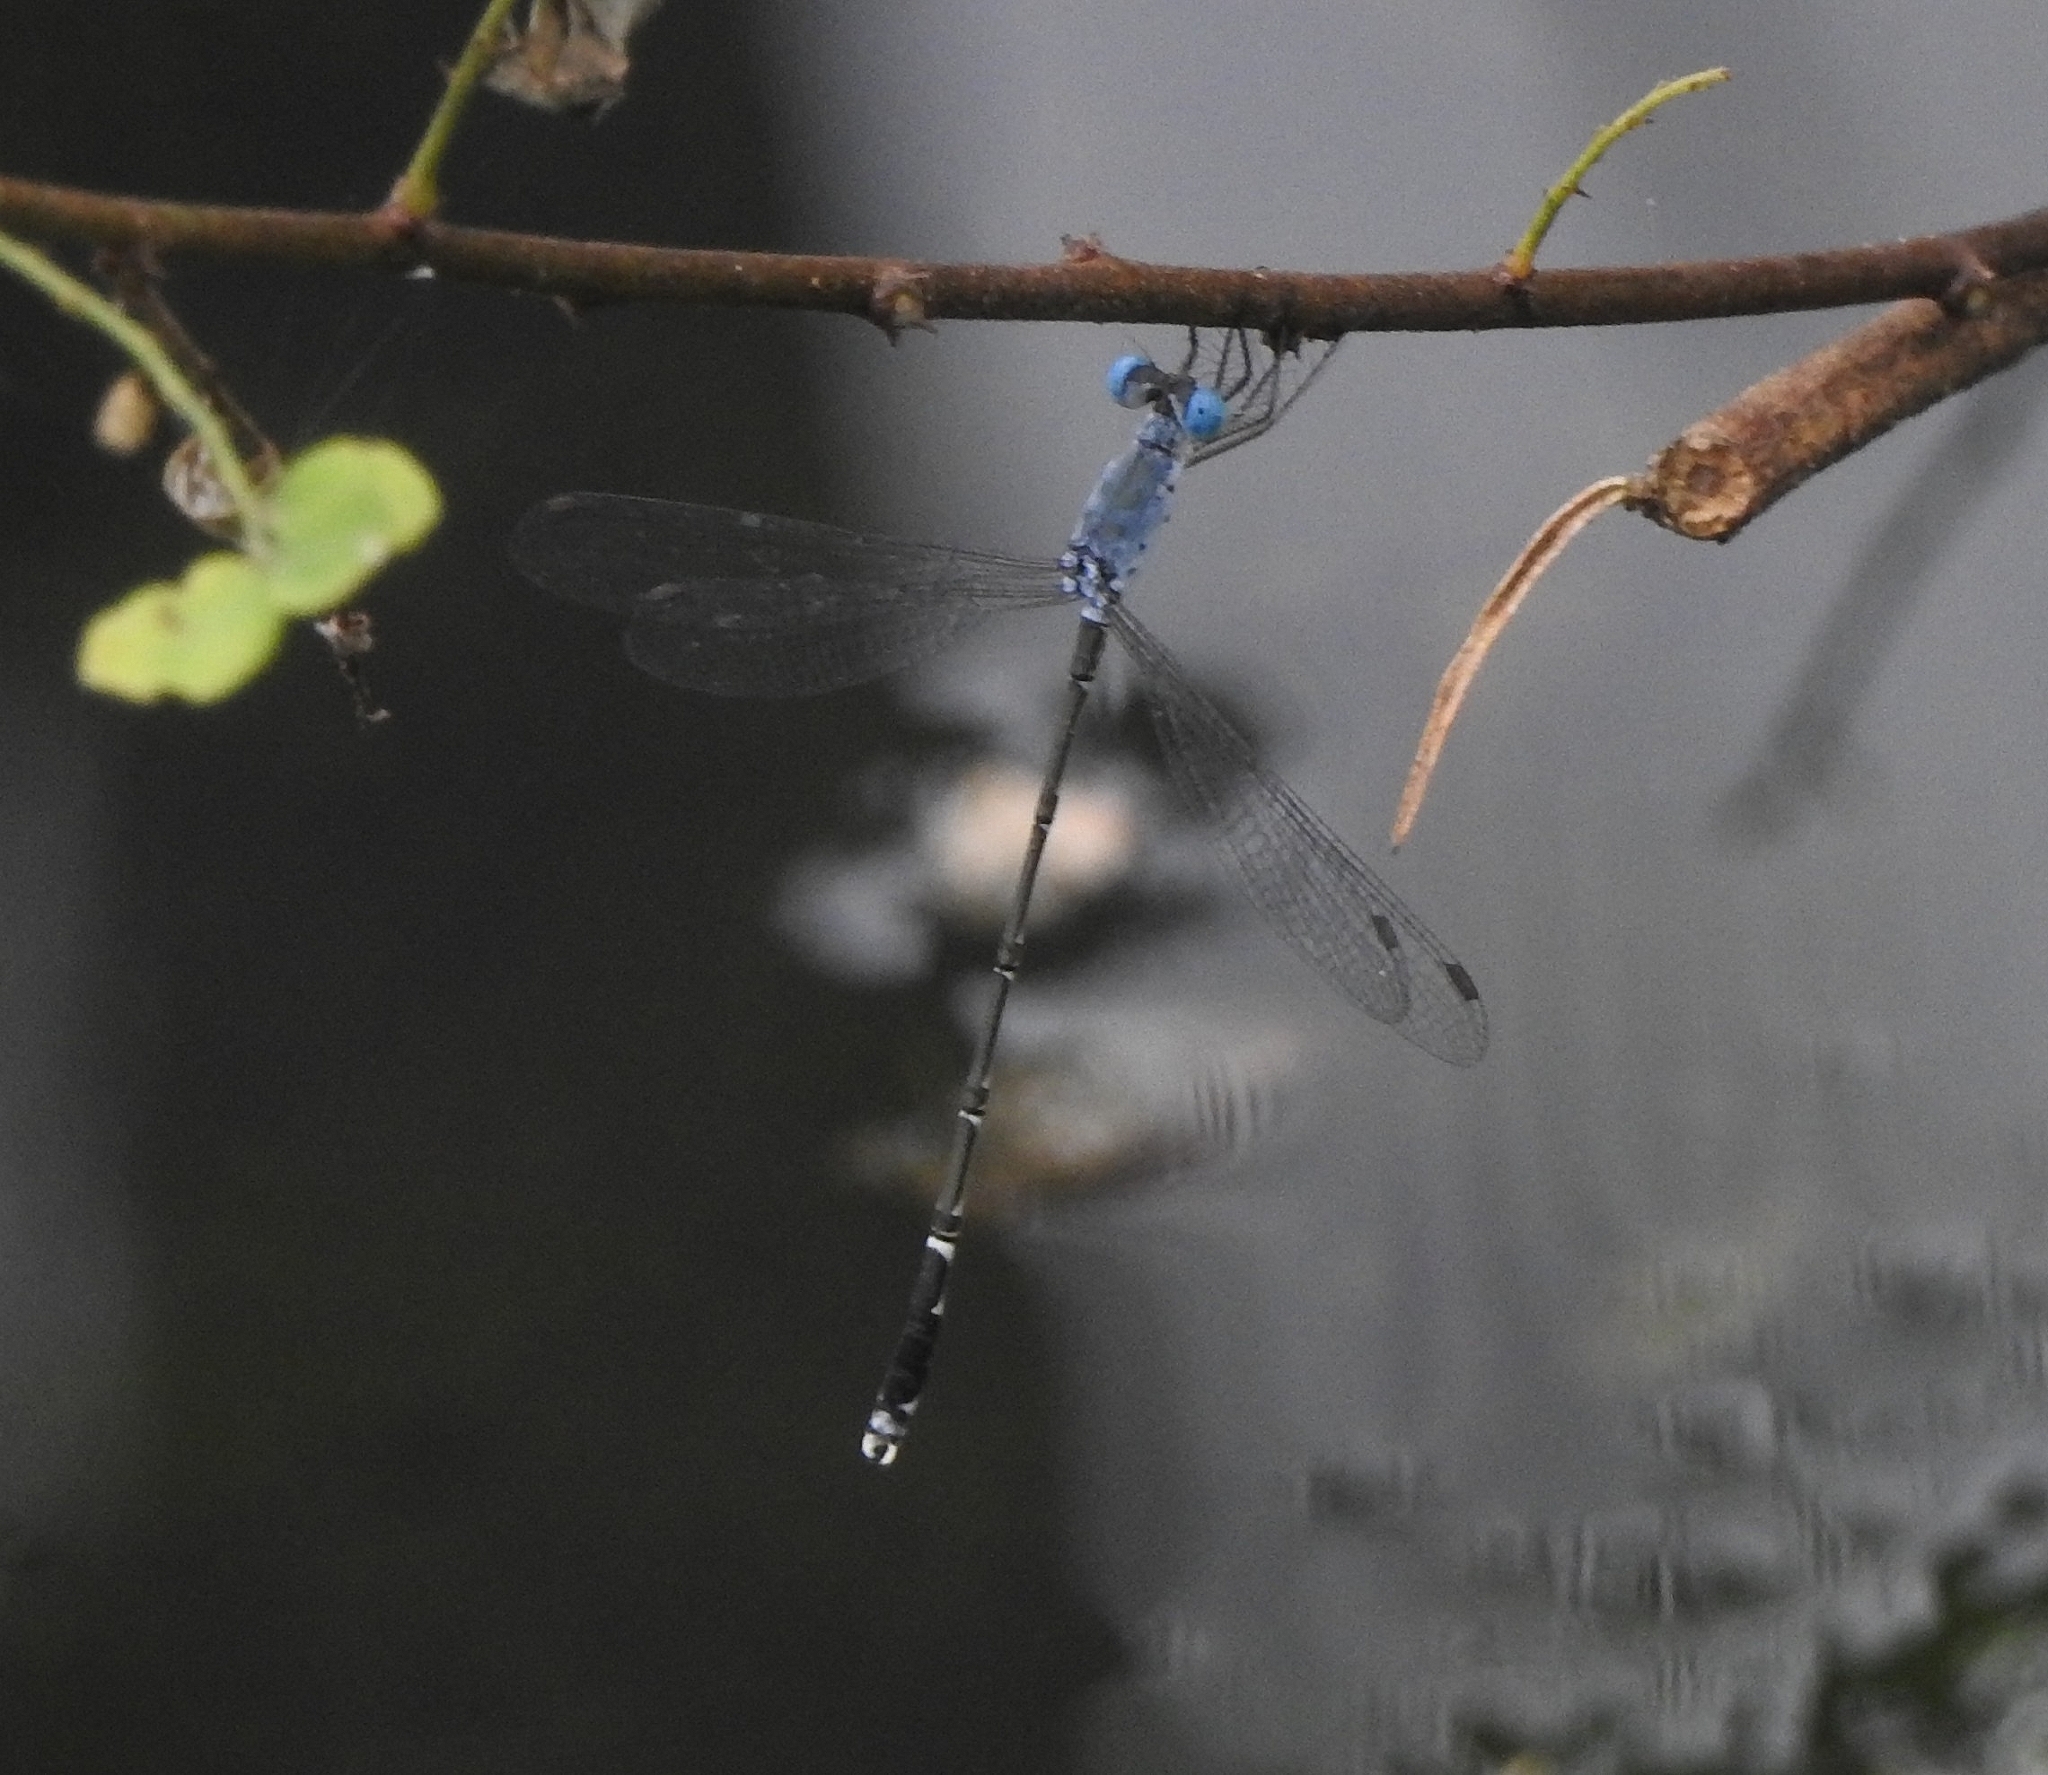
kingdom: Animalia
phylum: Arthropoda
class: Insecta
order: Odonata
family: Lestidae
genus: Lestes
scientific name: Lestes praemorsus
